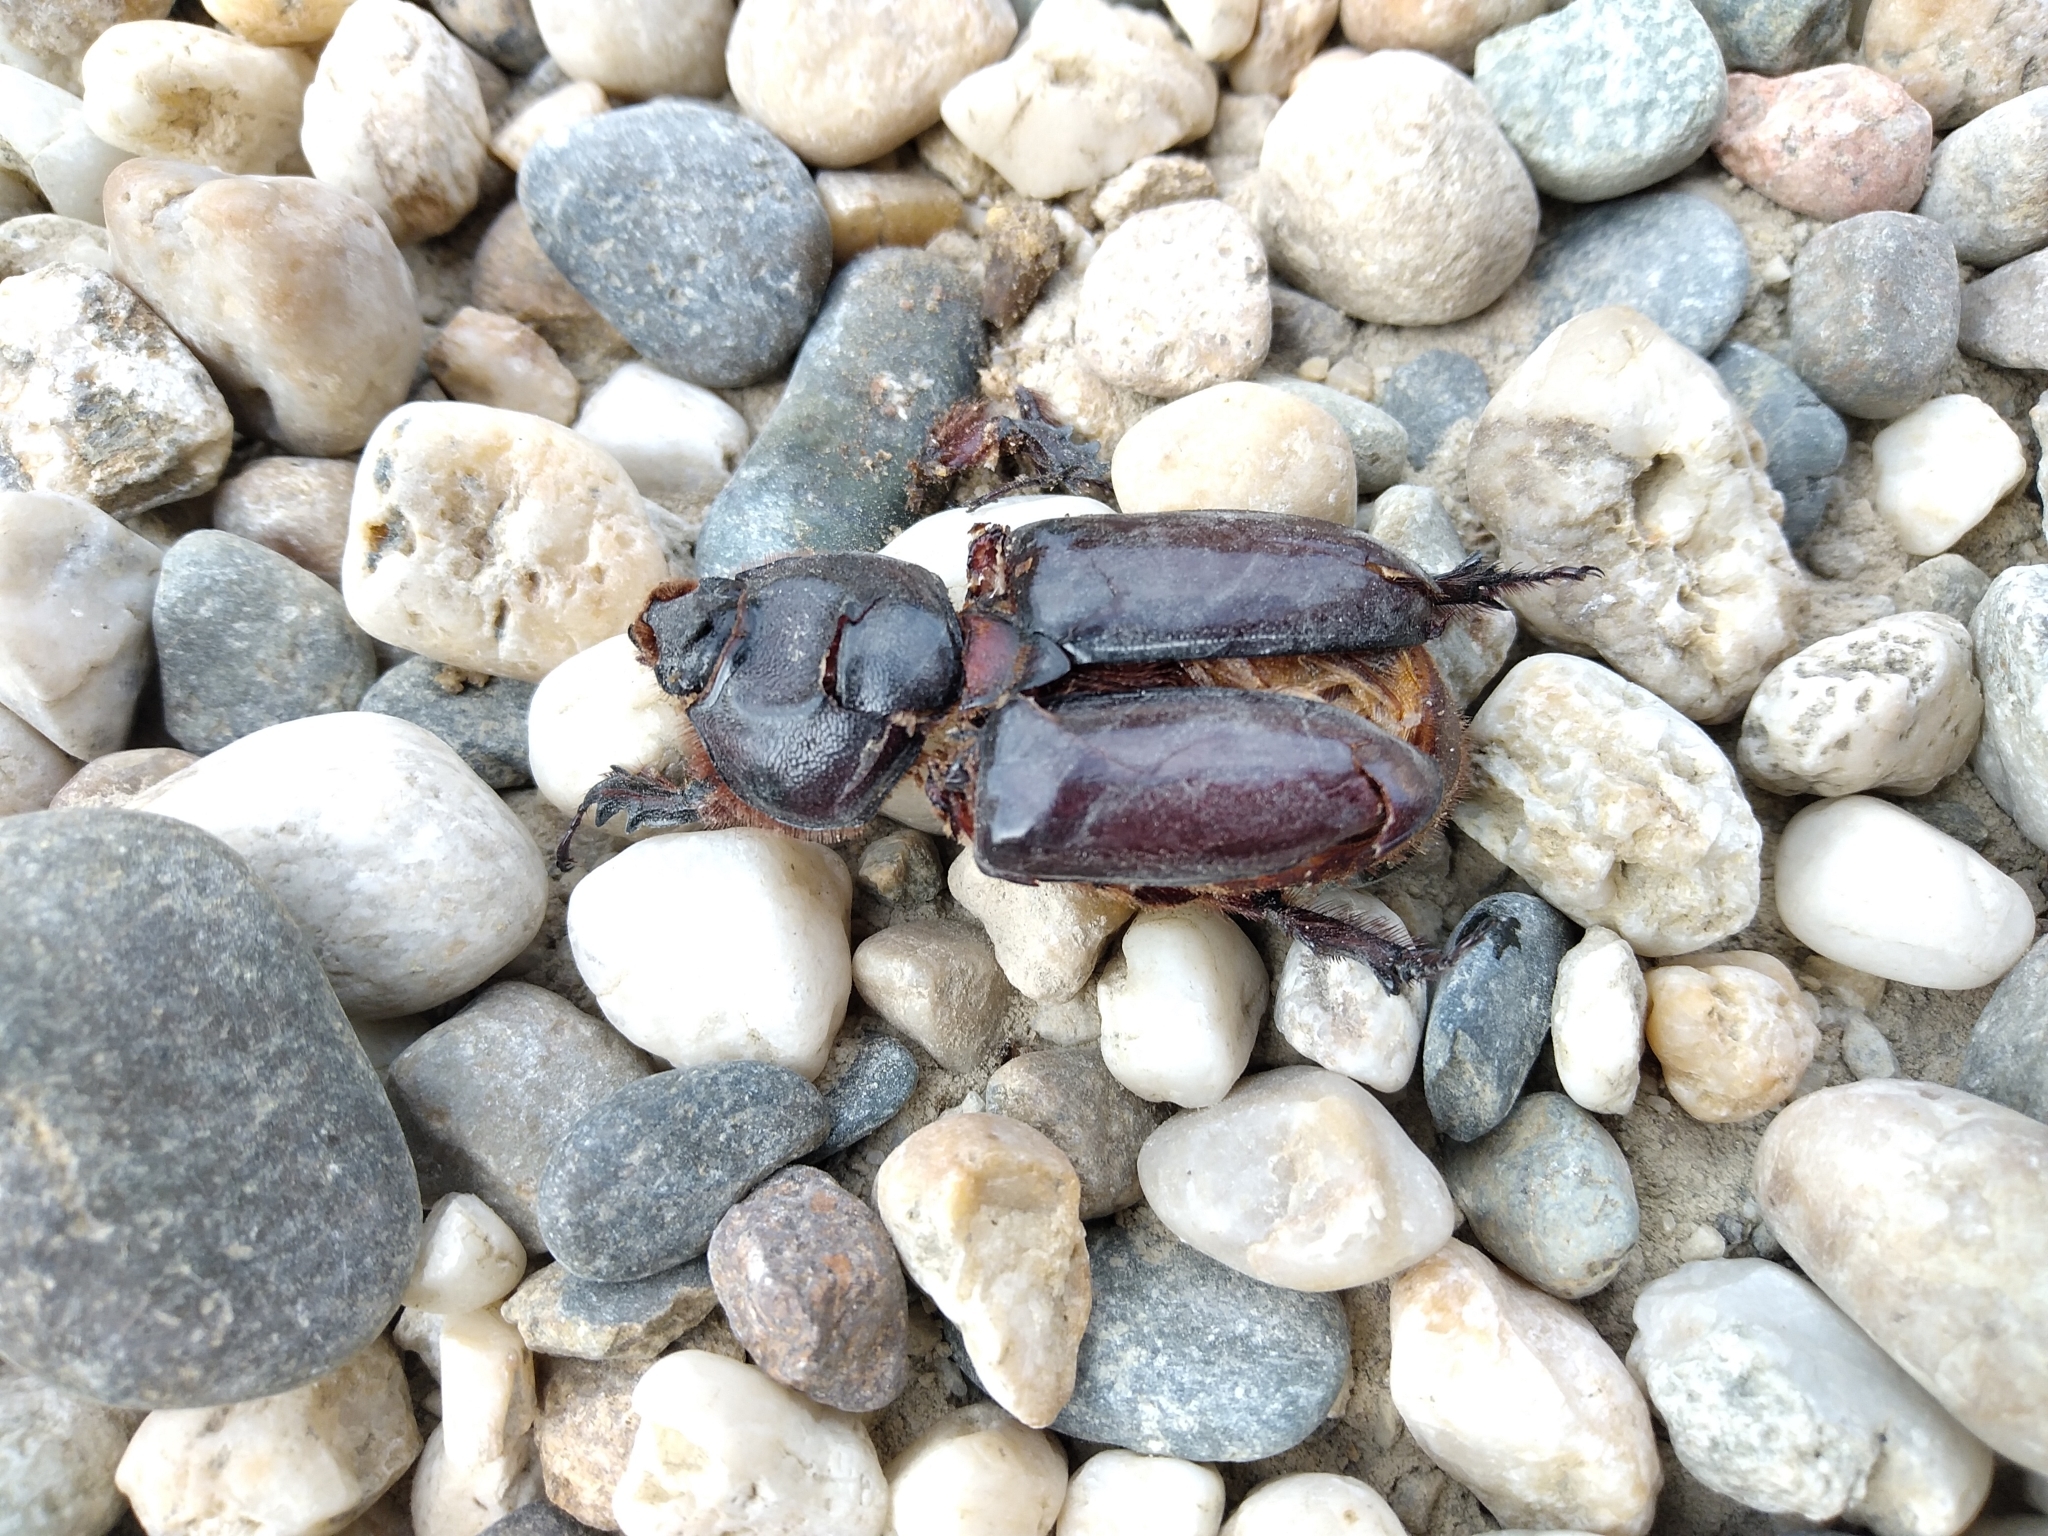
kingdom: Animalia
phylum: Arthropoda
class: Insecta
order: Coleoptera
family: Scarabaeidae
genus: Oryctes
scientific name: Oryctes nasicornis
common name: European rhinoceros beetle
